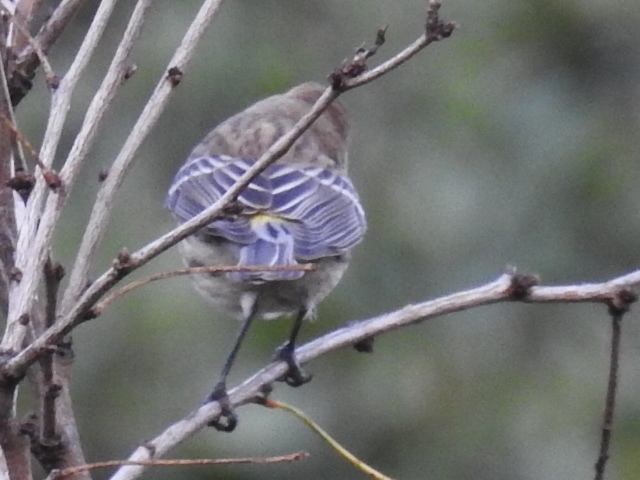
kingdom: Animalia
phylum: Chordata
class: Aves
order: Passeriformes
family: Parulidae
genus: Setophaga
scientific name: Setophaga coronata
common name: Myrtle warbler
